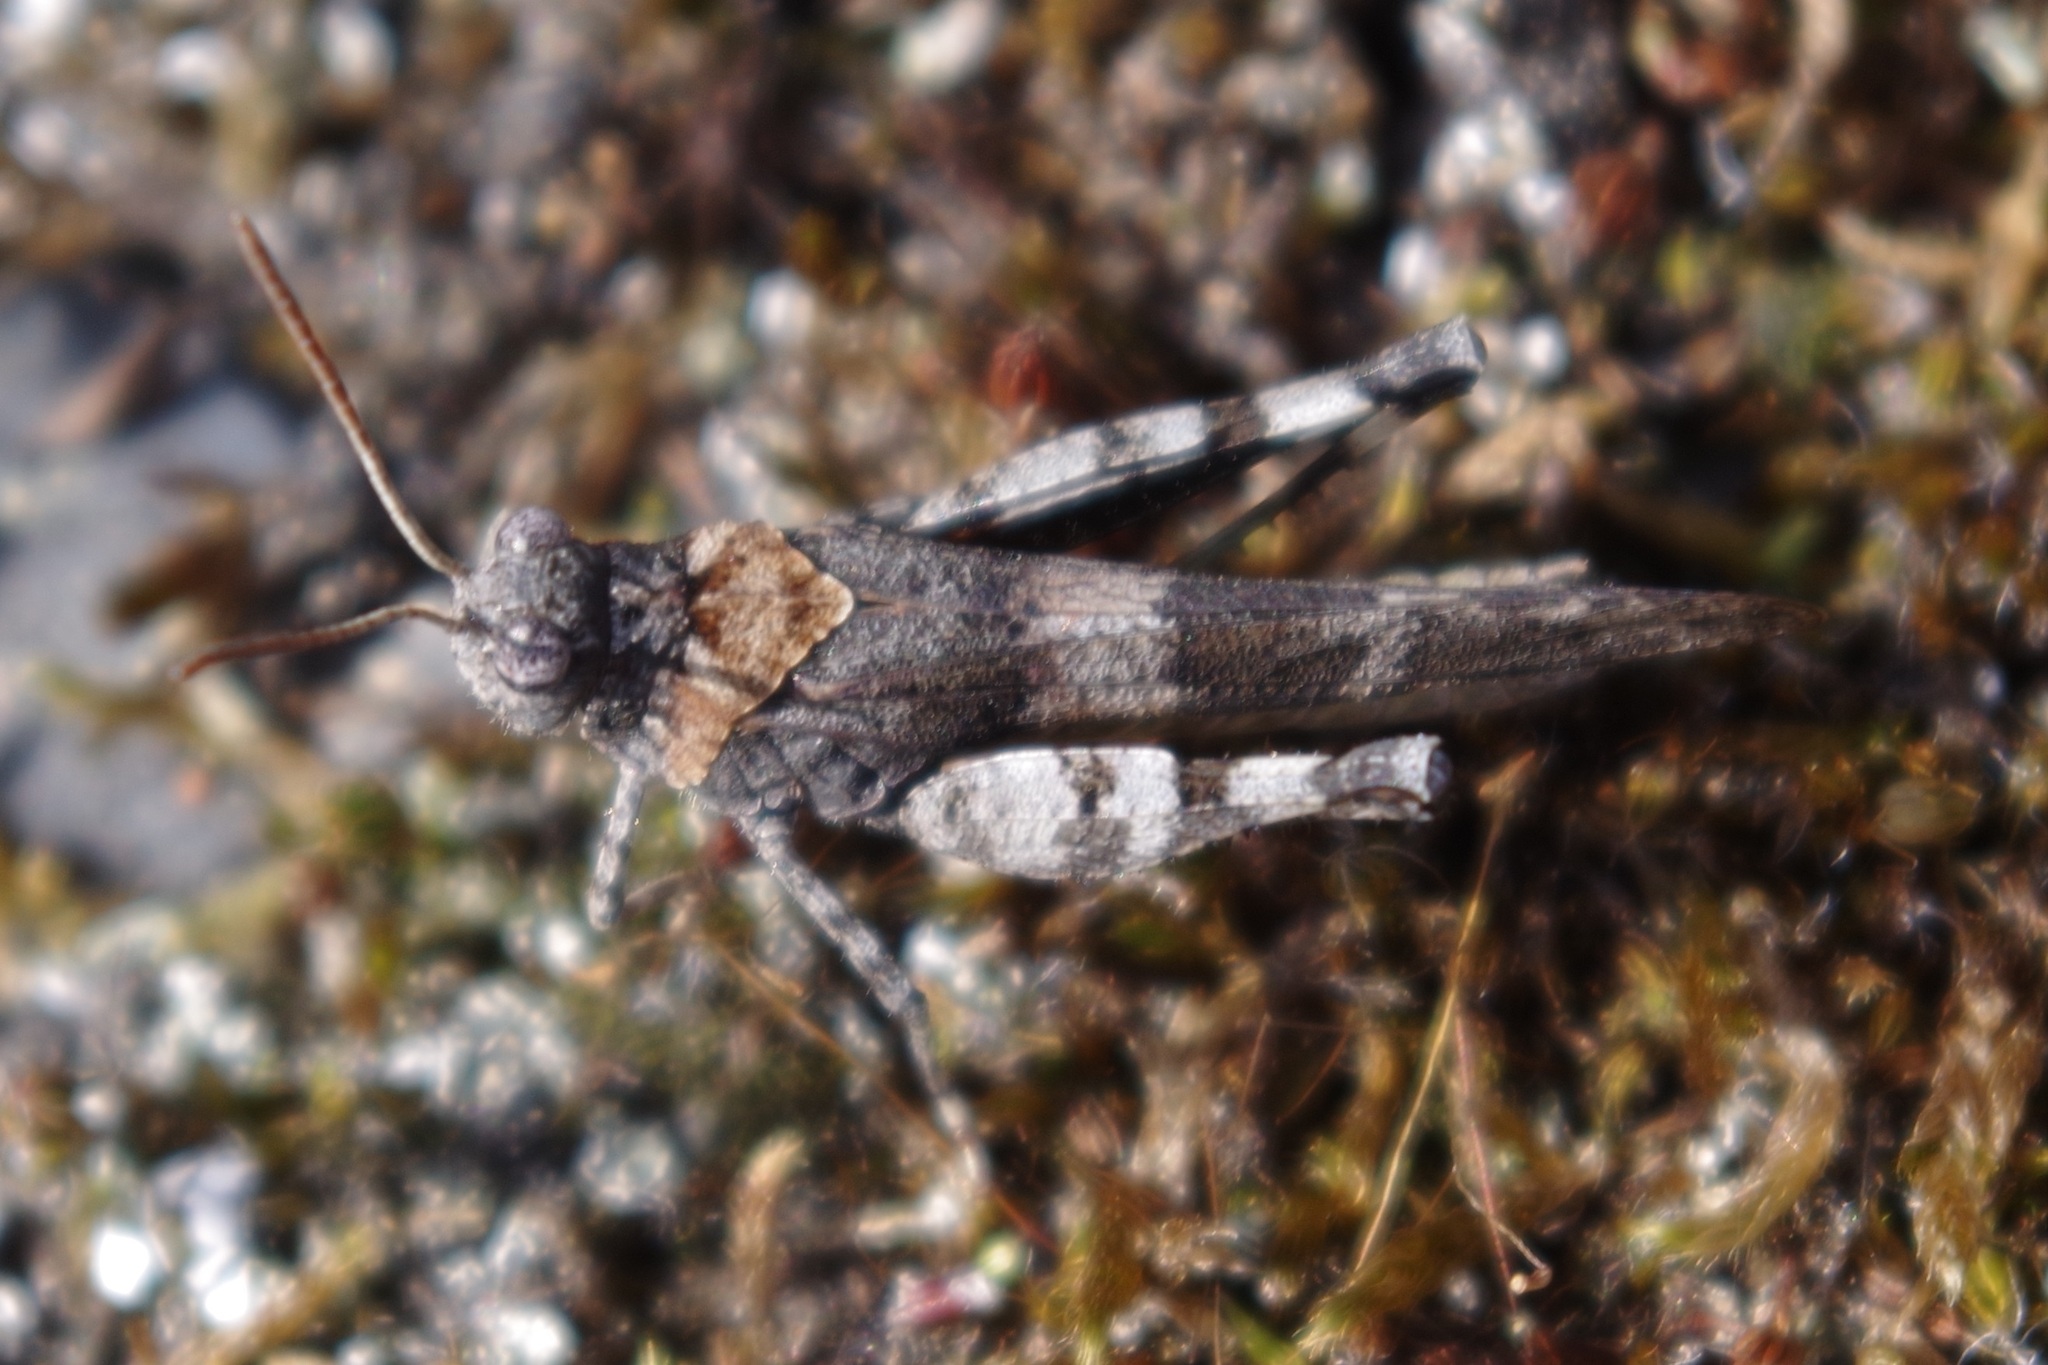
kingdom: Animalia
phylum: Arthropoda
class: Insecta
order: Orthoptera
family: Acrididae
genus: Oedipoda
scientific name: Oedipoda caerulescens
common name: Blue-winged grasshopper
